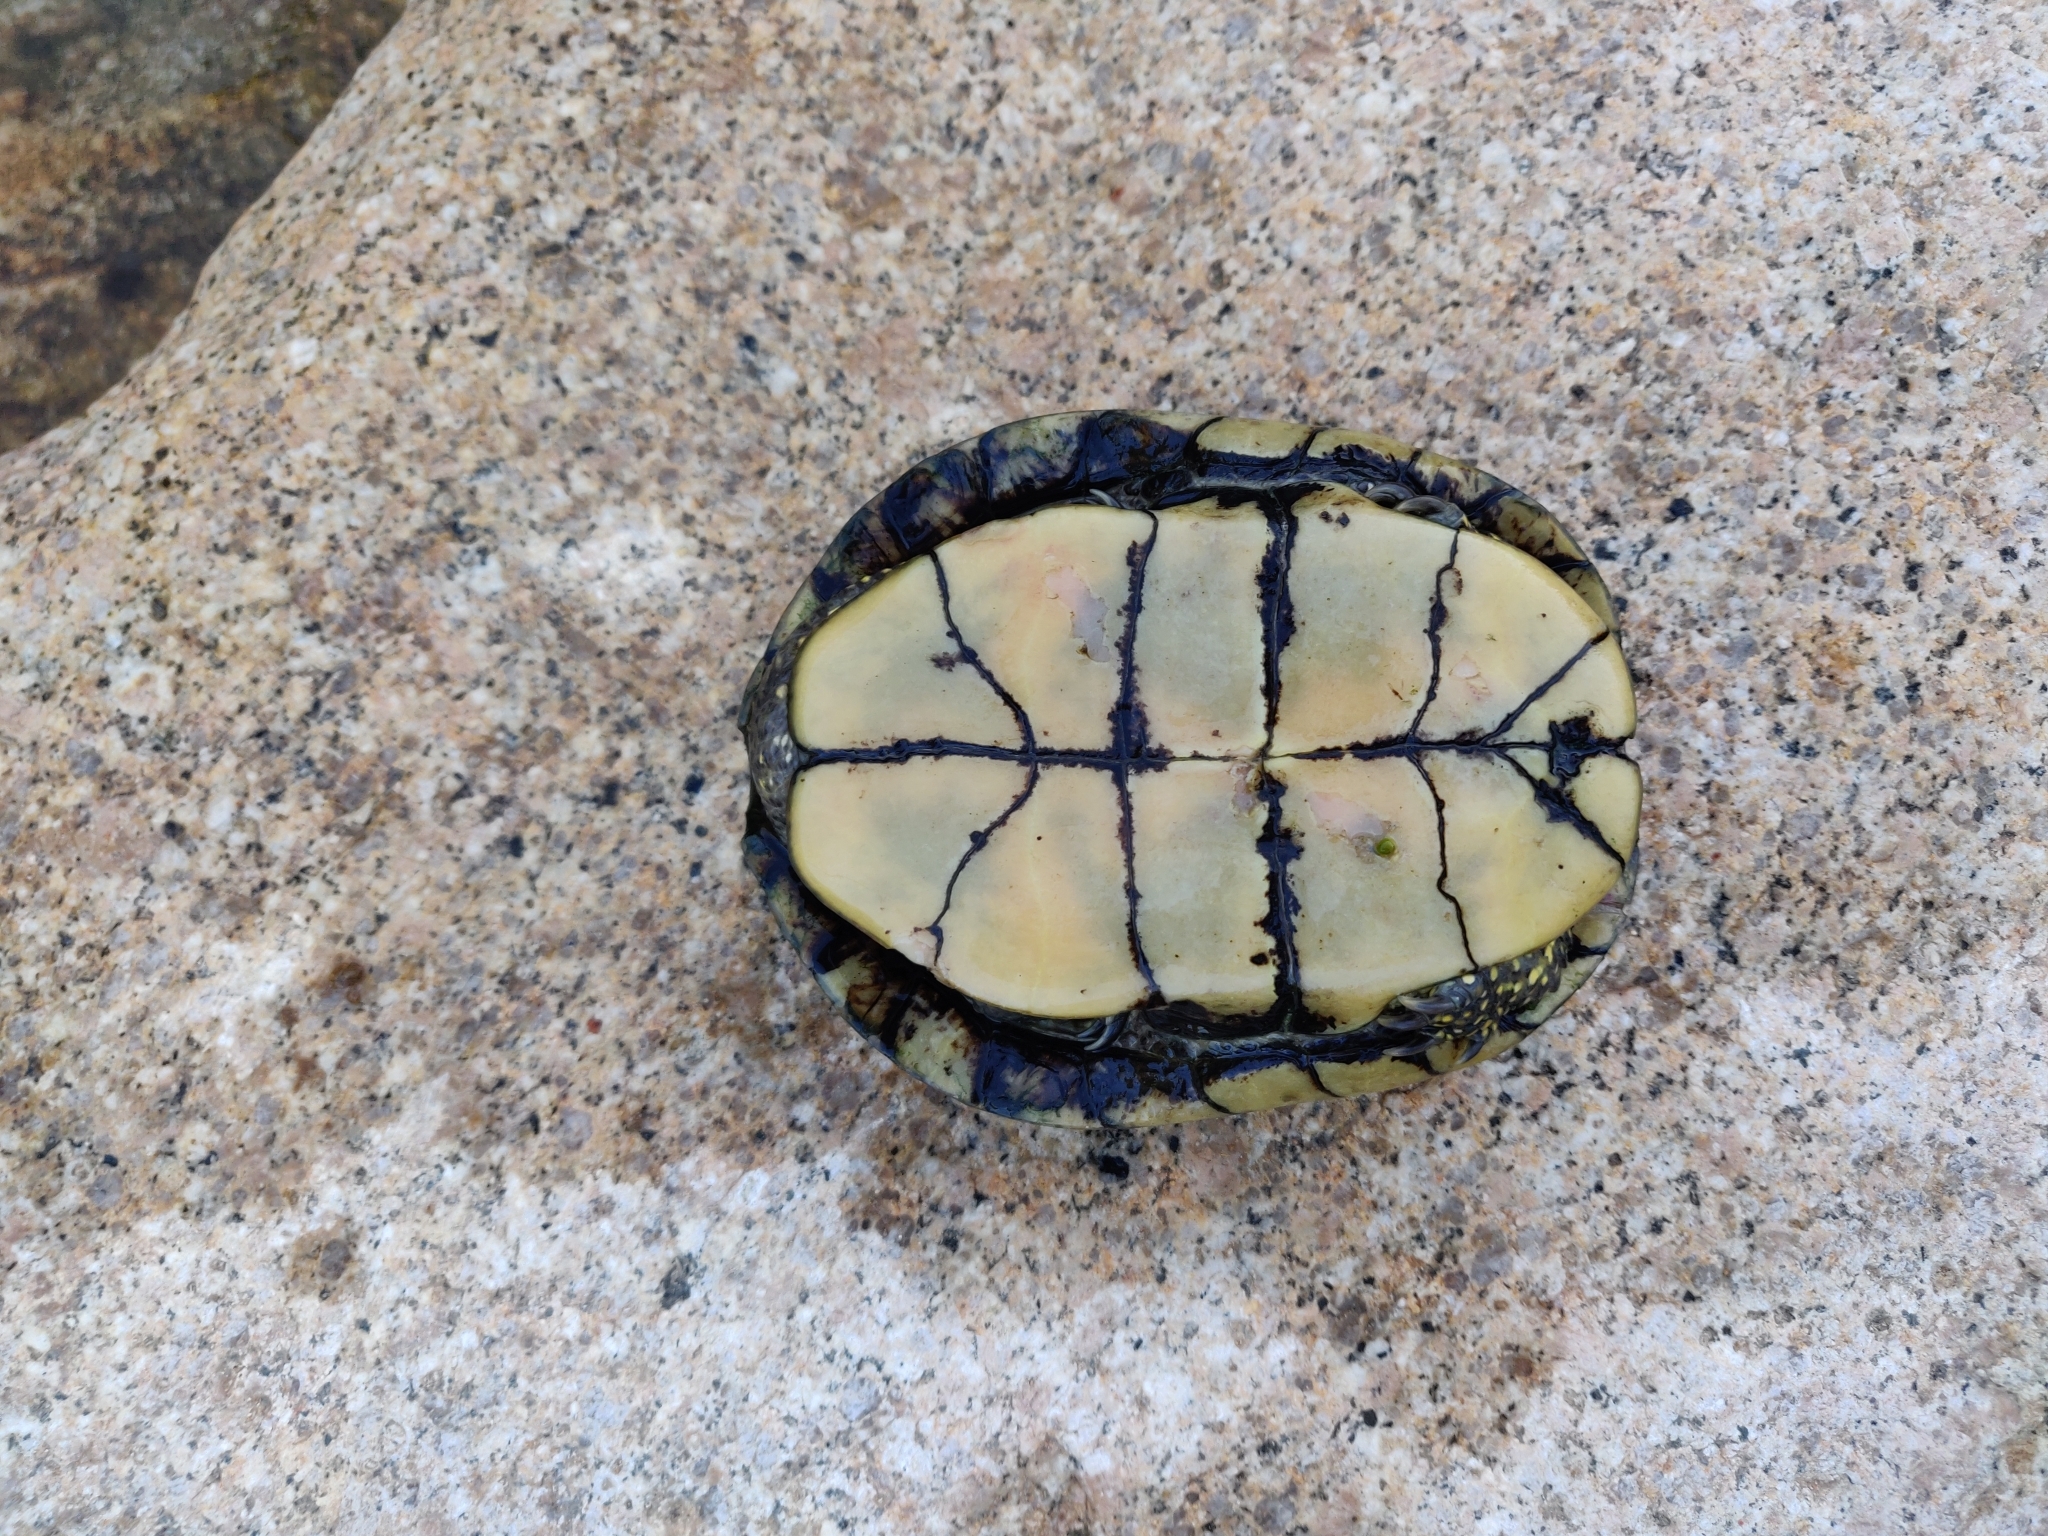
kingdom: Animalia
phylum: Chordata
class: Testudines
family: Emydidae
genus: Emys
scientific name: Emys orbicularis
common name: European pond turtle
